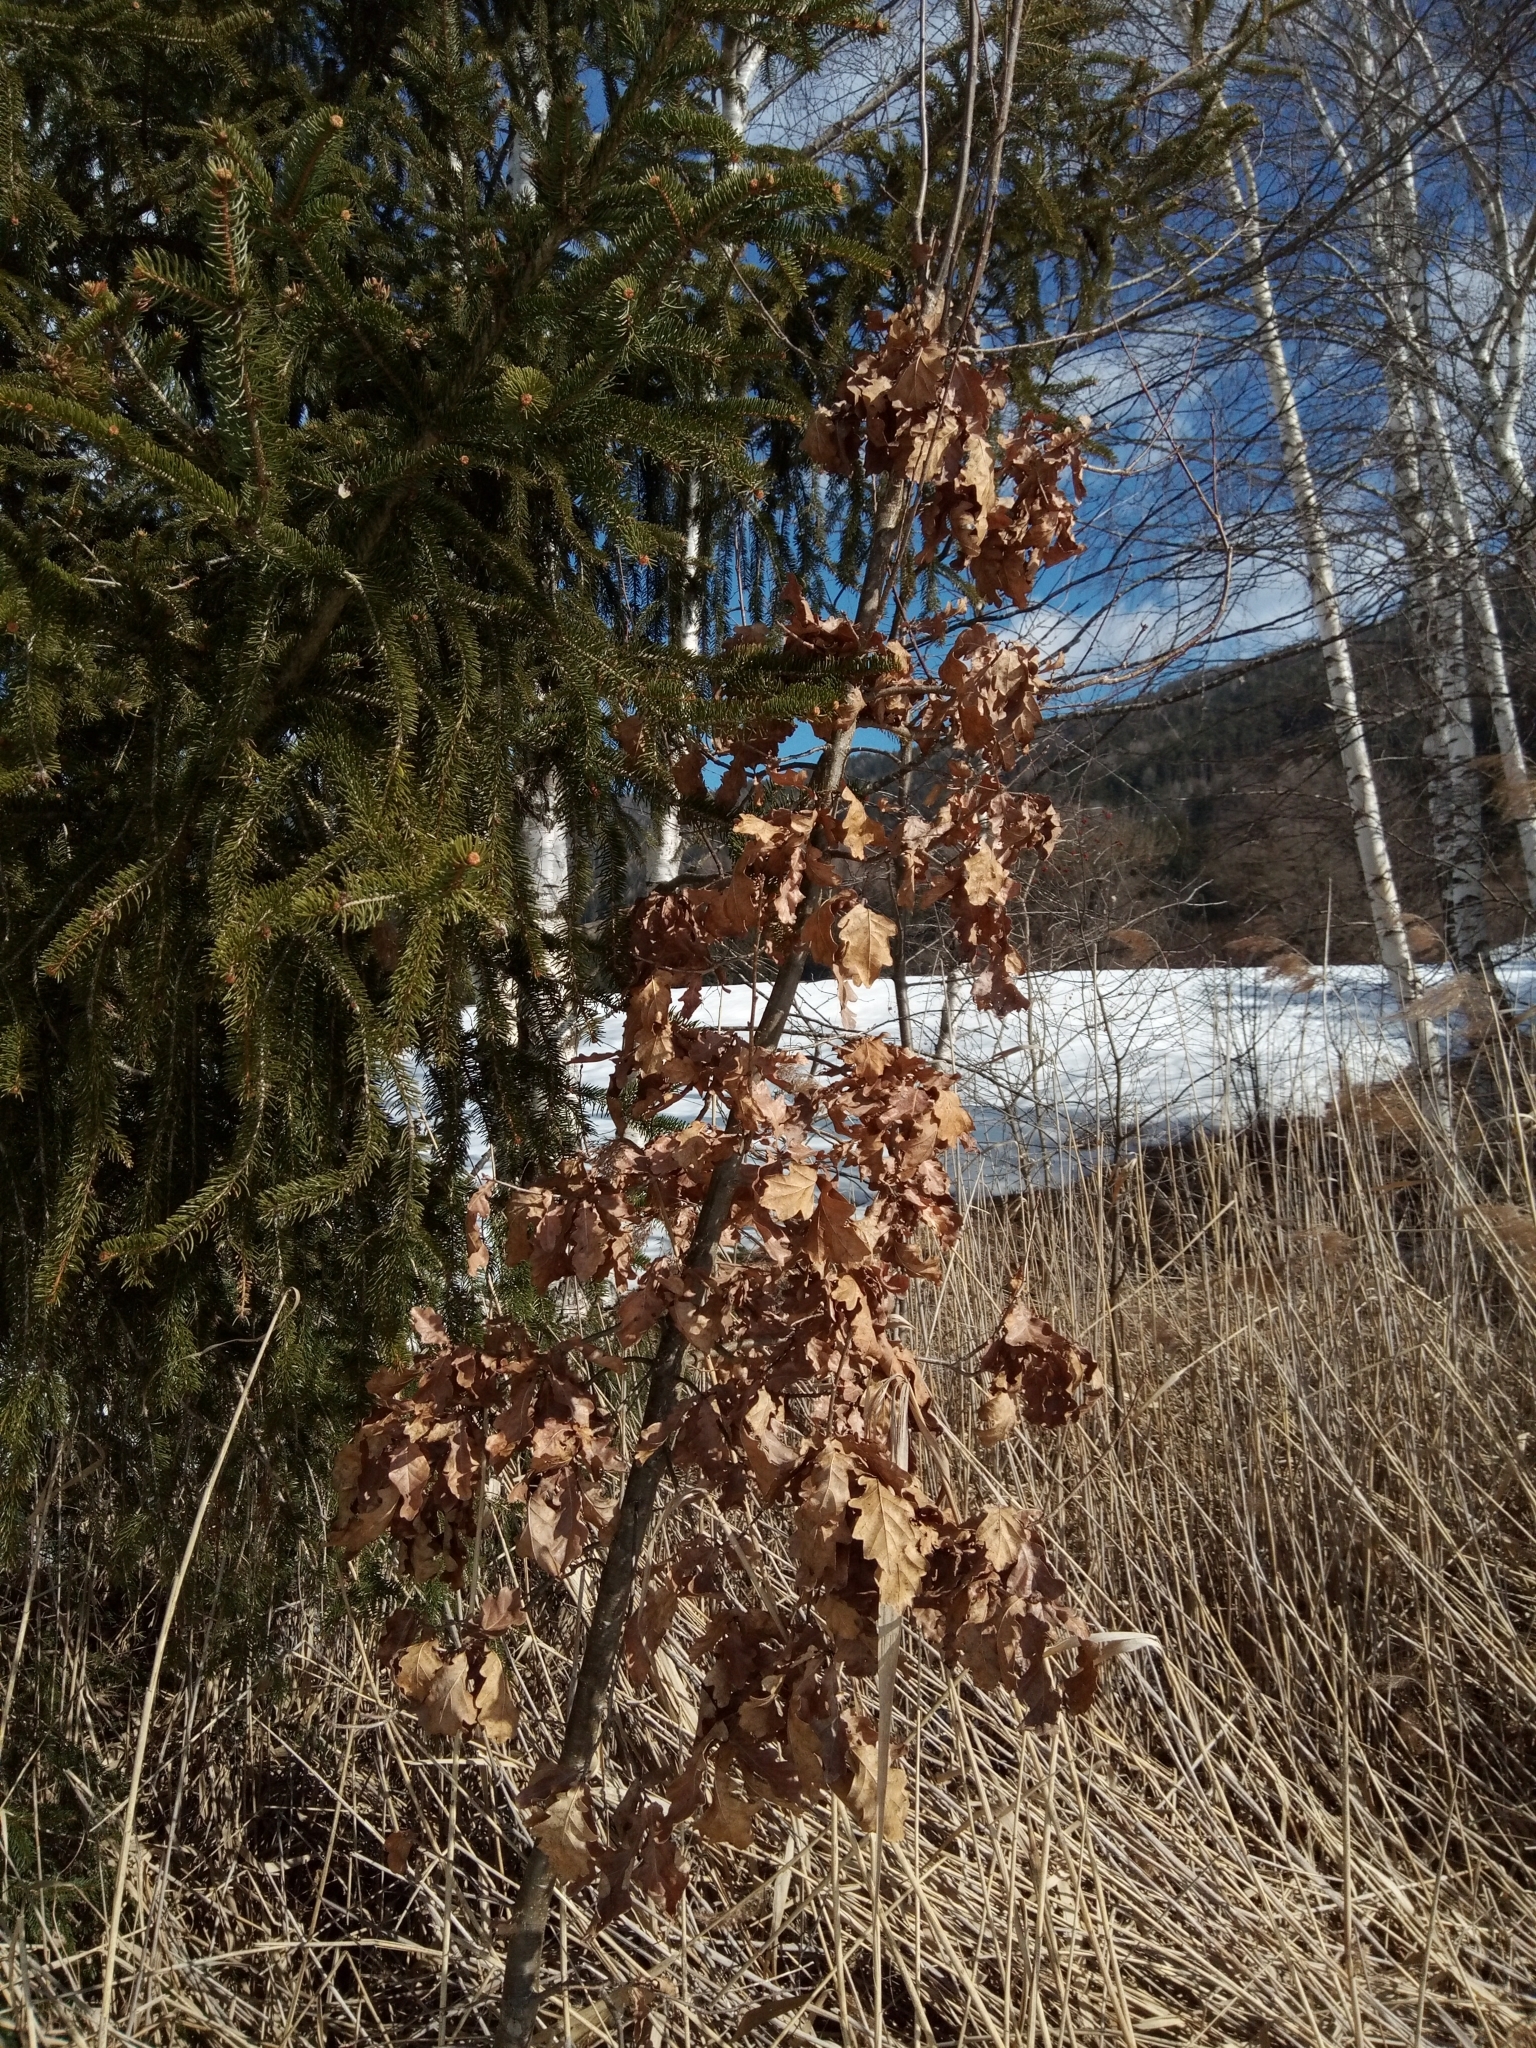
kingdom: Plantae
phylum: Tracheophyta
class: Magnoliopsida
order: Fagales
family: Fagaceae
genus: Quercus
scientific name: Quercus robur
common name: Pedunculate oak
